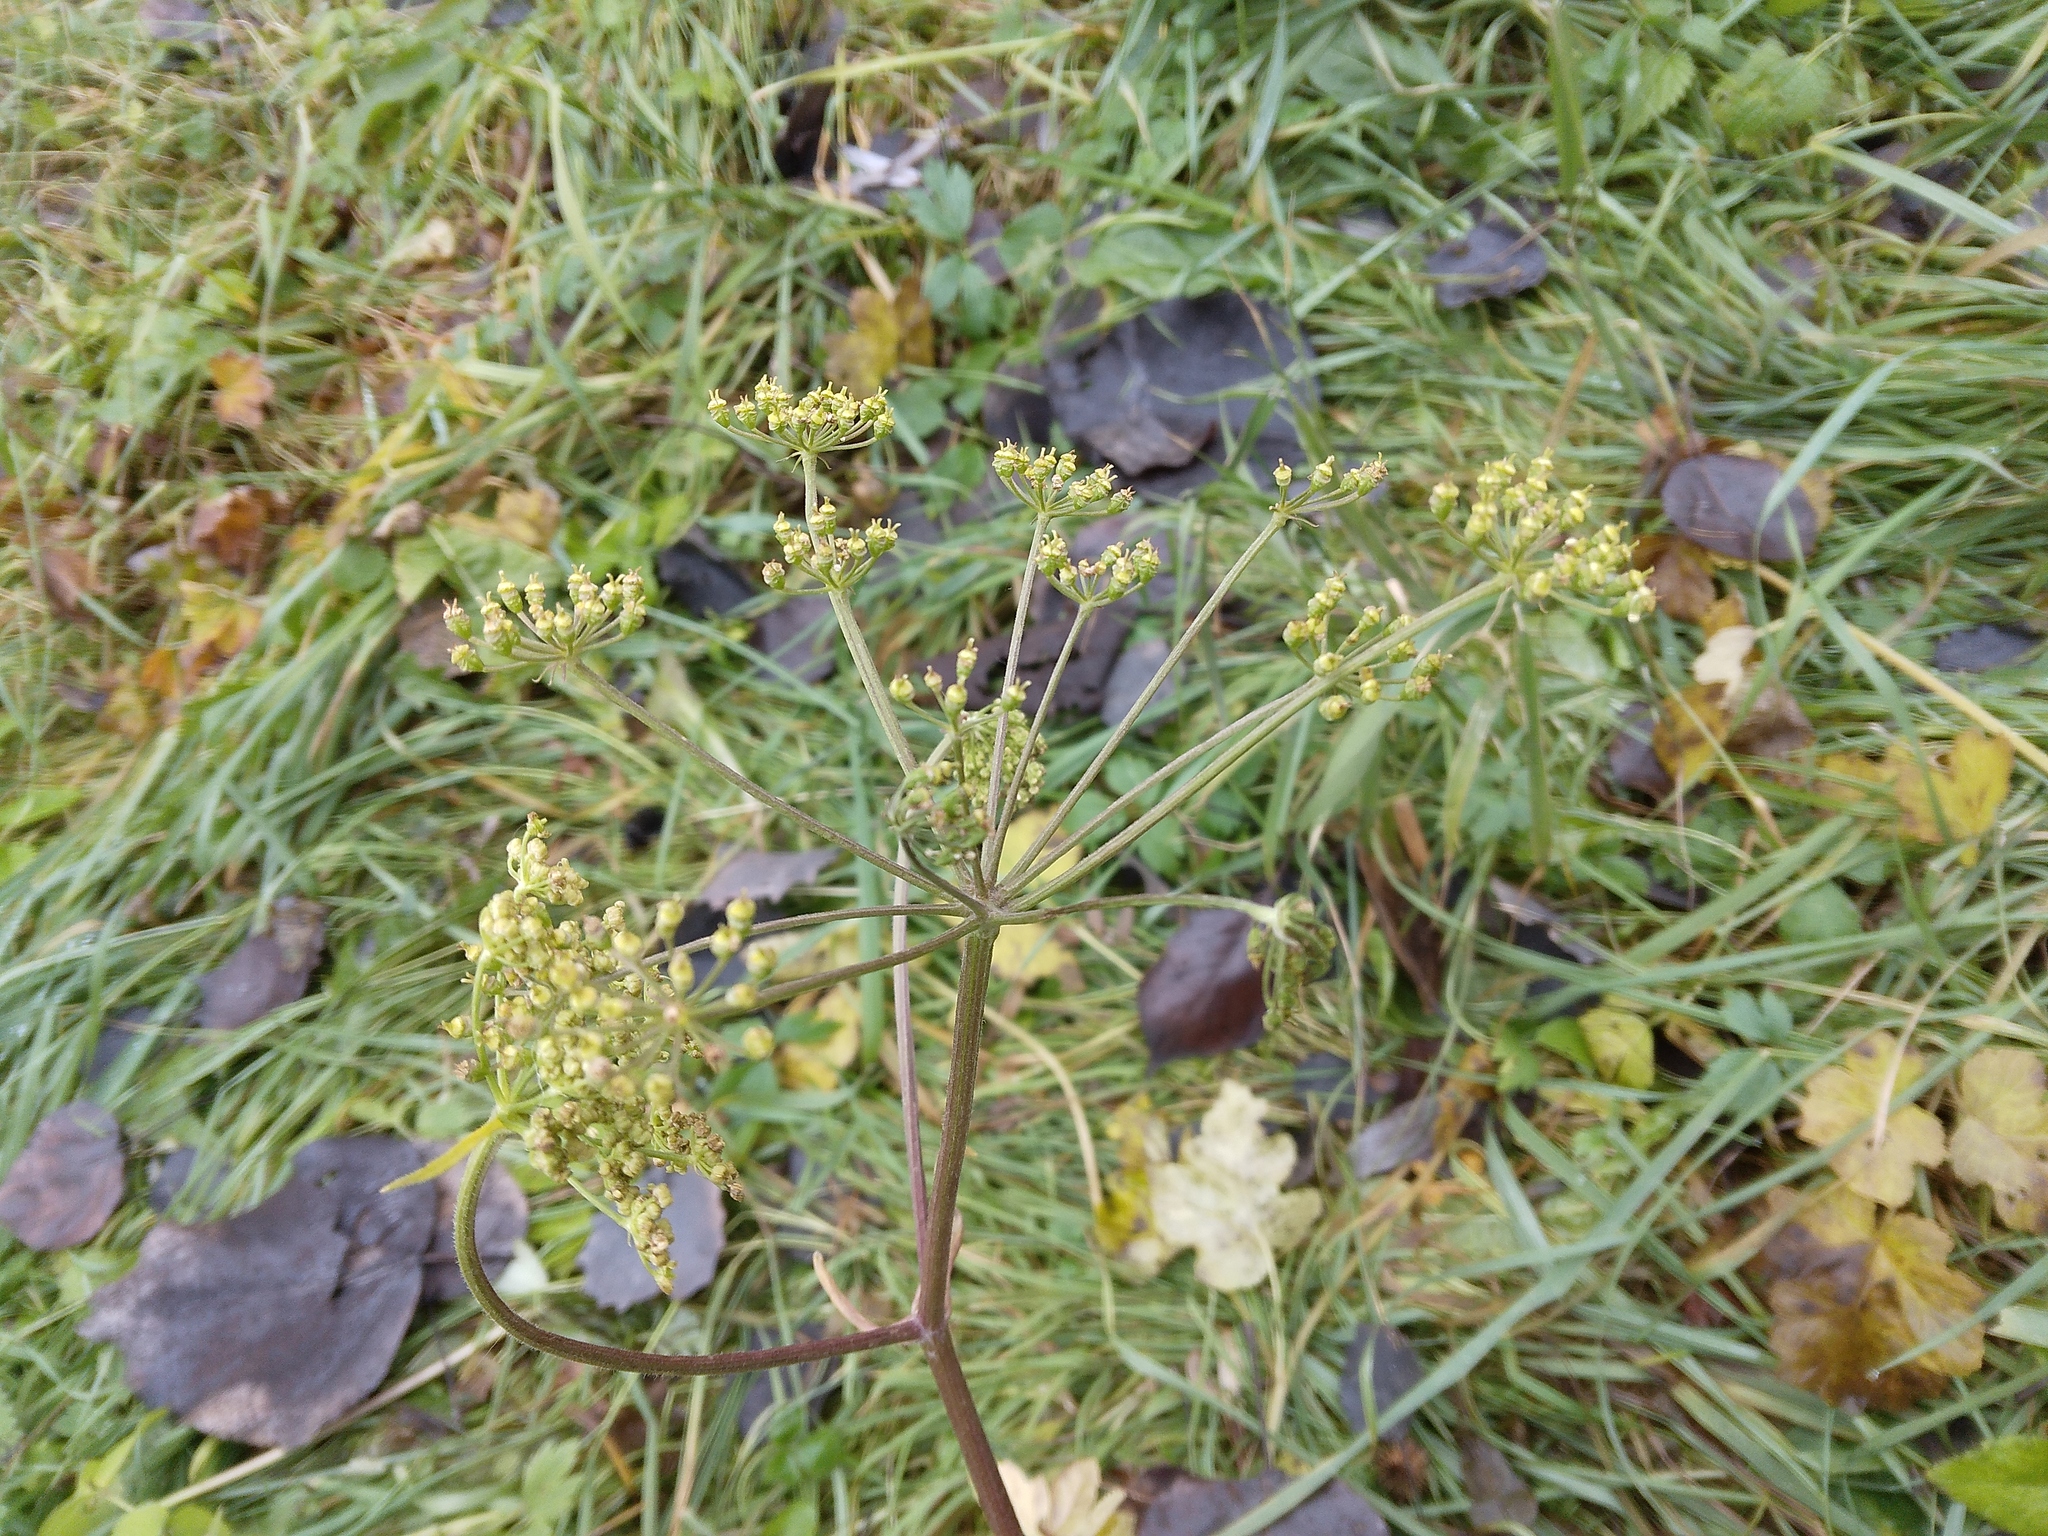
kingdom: Plantae
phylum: Tracheophyta
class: Magnoliopsida
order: Apiales
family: Apiaceae
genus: Pastinaca
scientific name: Pastinaca sativa
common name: Wild parsnip
